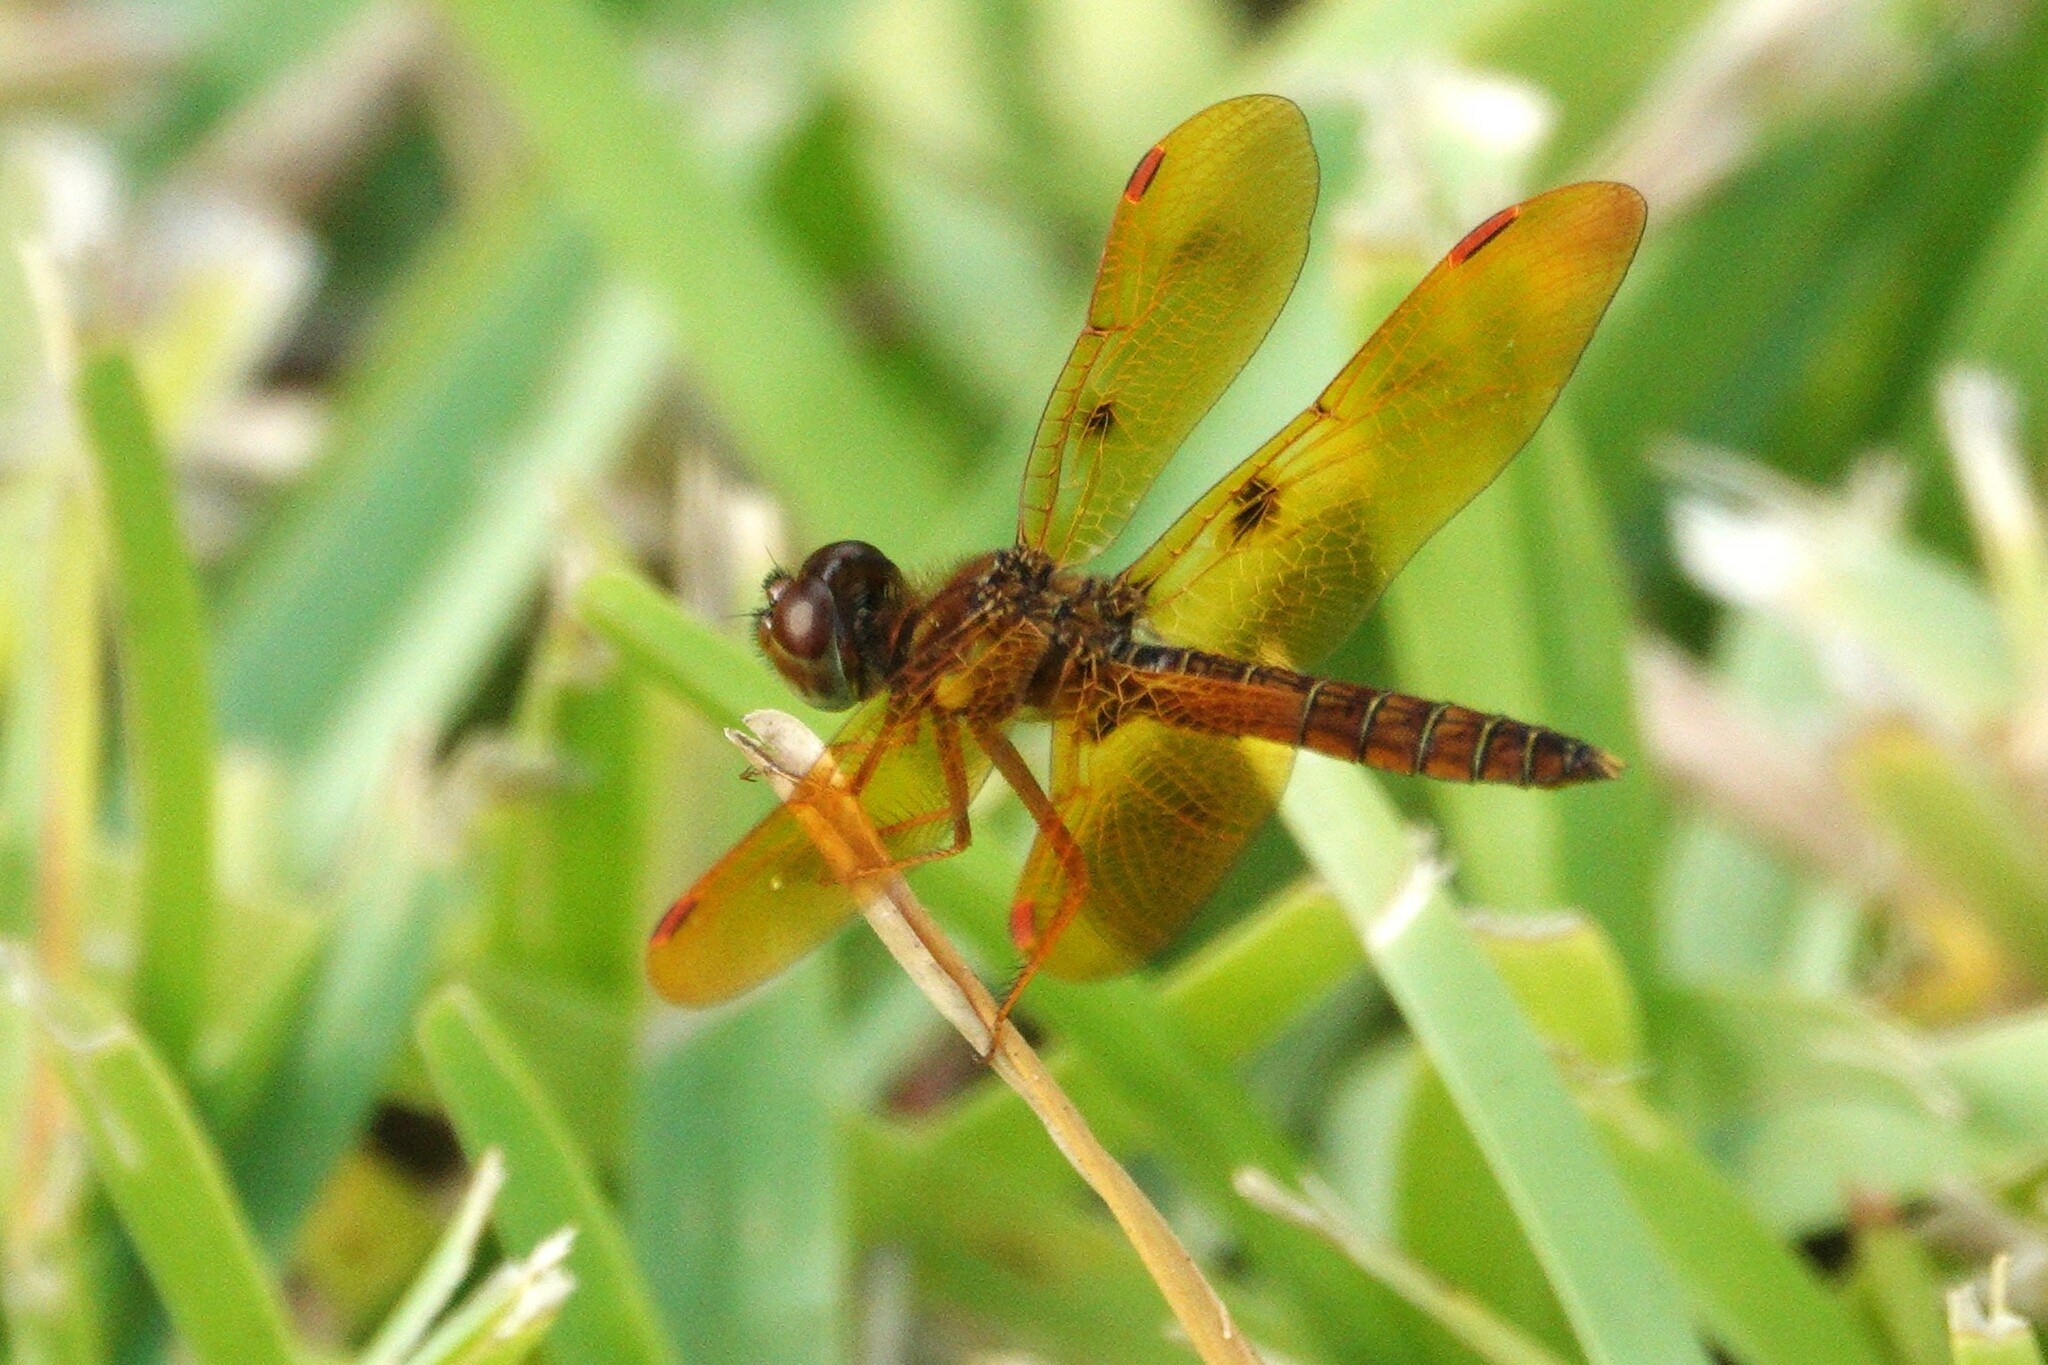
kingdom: Animalia
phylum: Arthropoda
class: Insecta
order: Odonata
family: Libellulidae
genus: Perithemis
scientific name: Perithemis tenera
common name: Eastern amberwing
